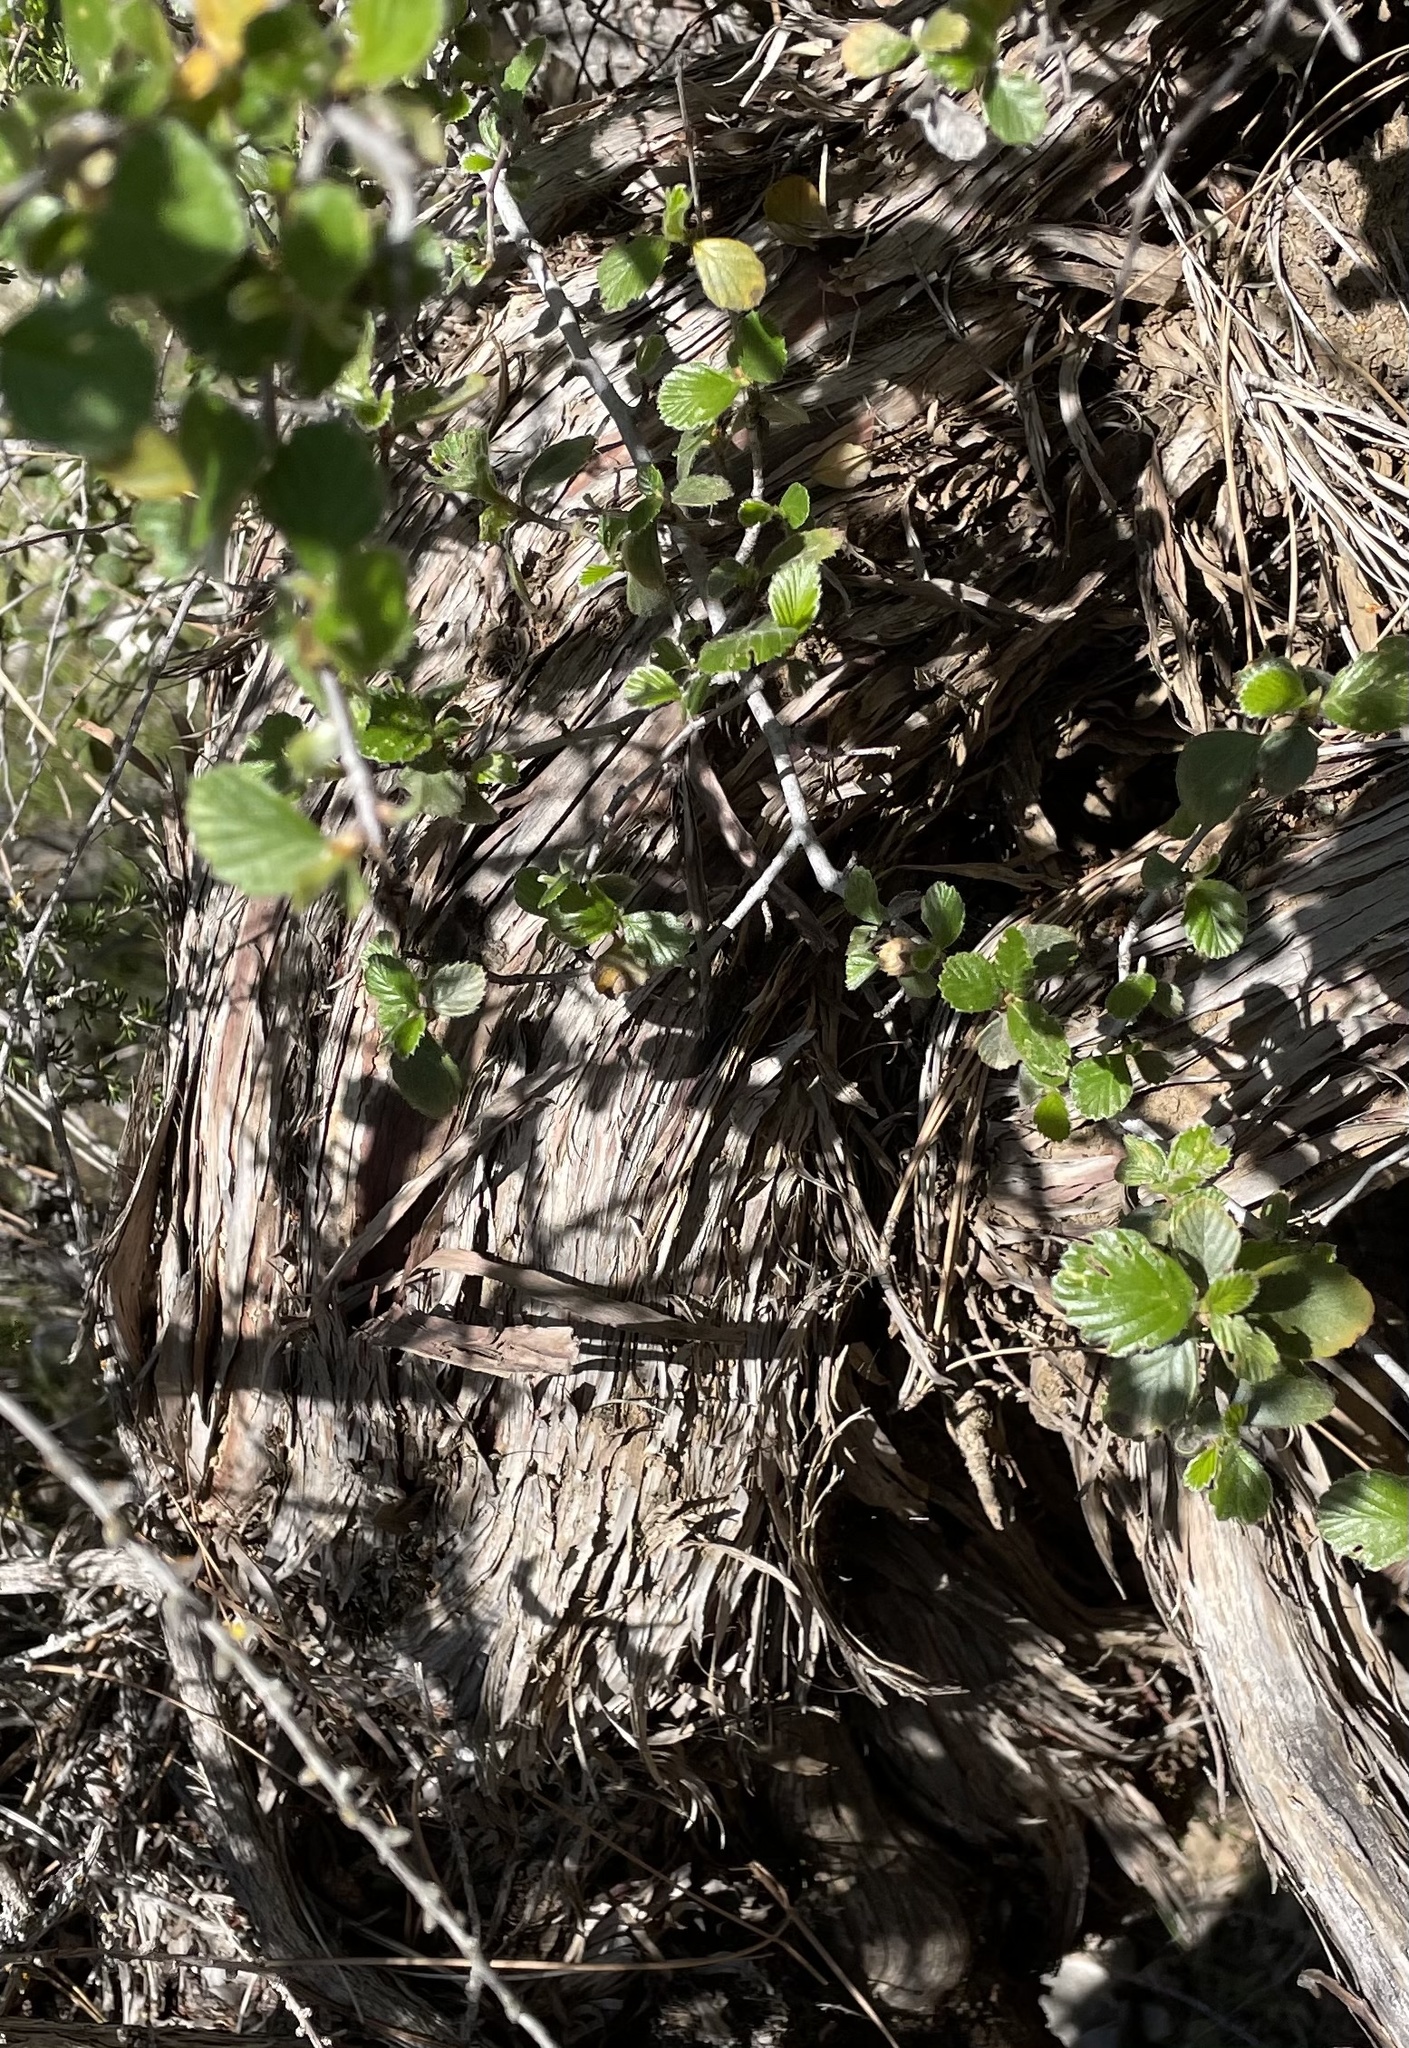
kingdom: Plantae
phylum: Tracheophyta
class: Magnoliopsida
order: Rosales
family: Rosaceae
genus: Adenostoma
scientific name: Adenostoma fasciculatum
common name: Chamise
